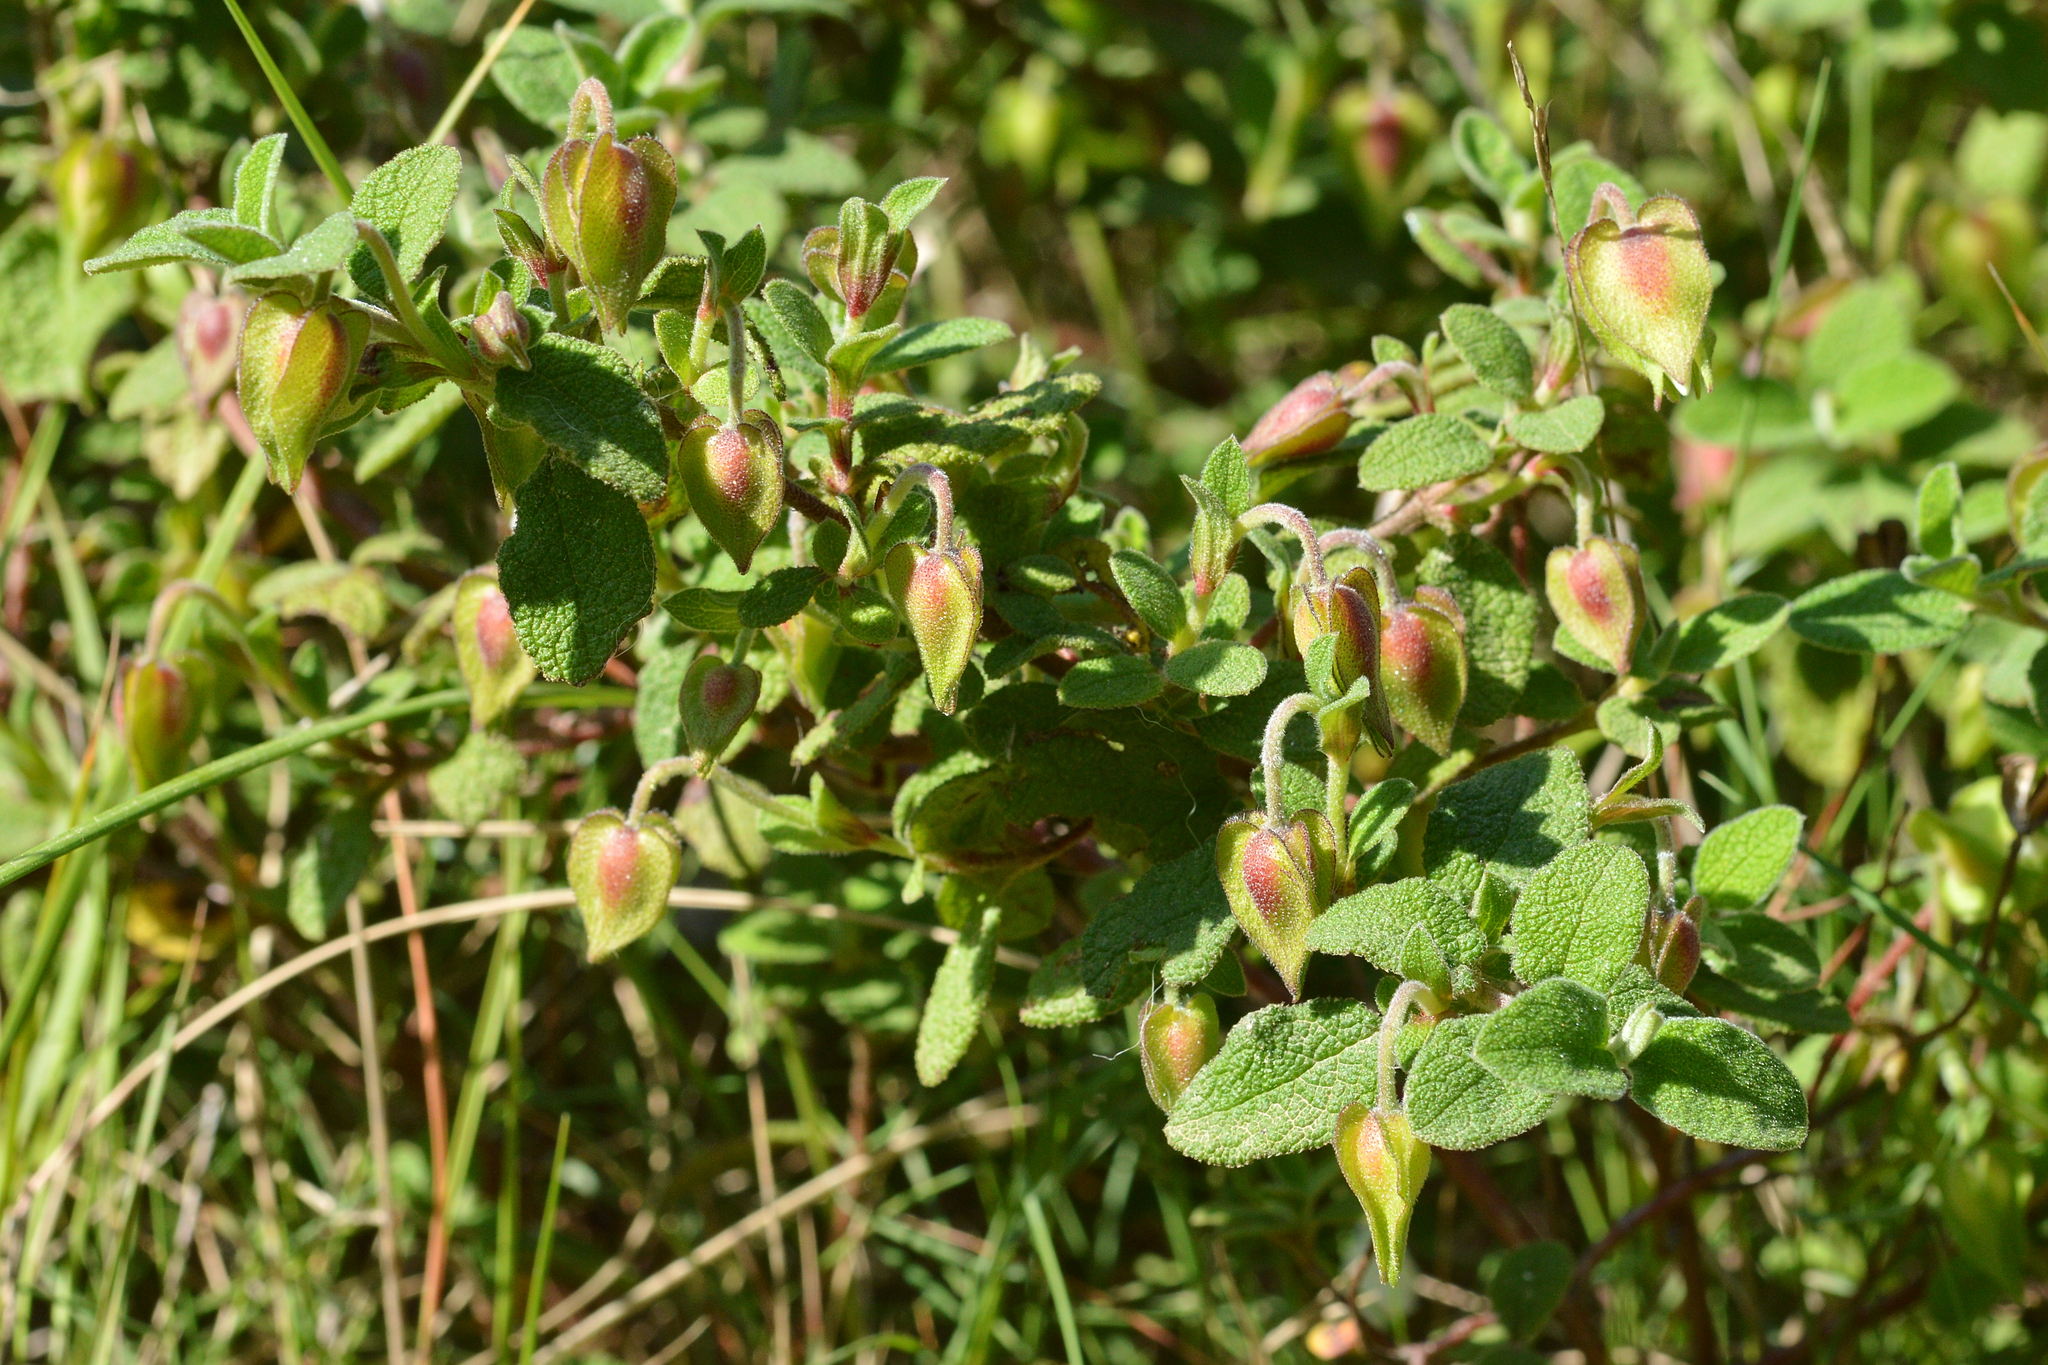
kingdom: Plantae
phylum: Tracheophyta
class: Magnoliopsida
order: Malvales
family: Cistaceae
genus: Cistus
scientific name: Cistus salviifolius
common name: Salvia cistus
